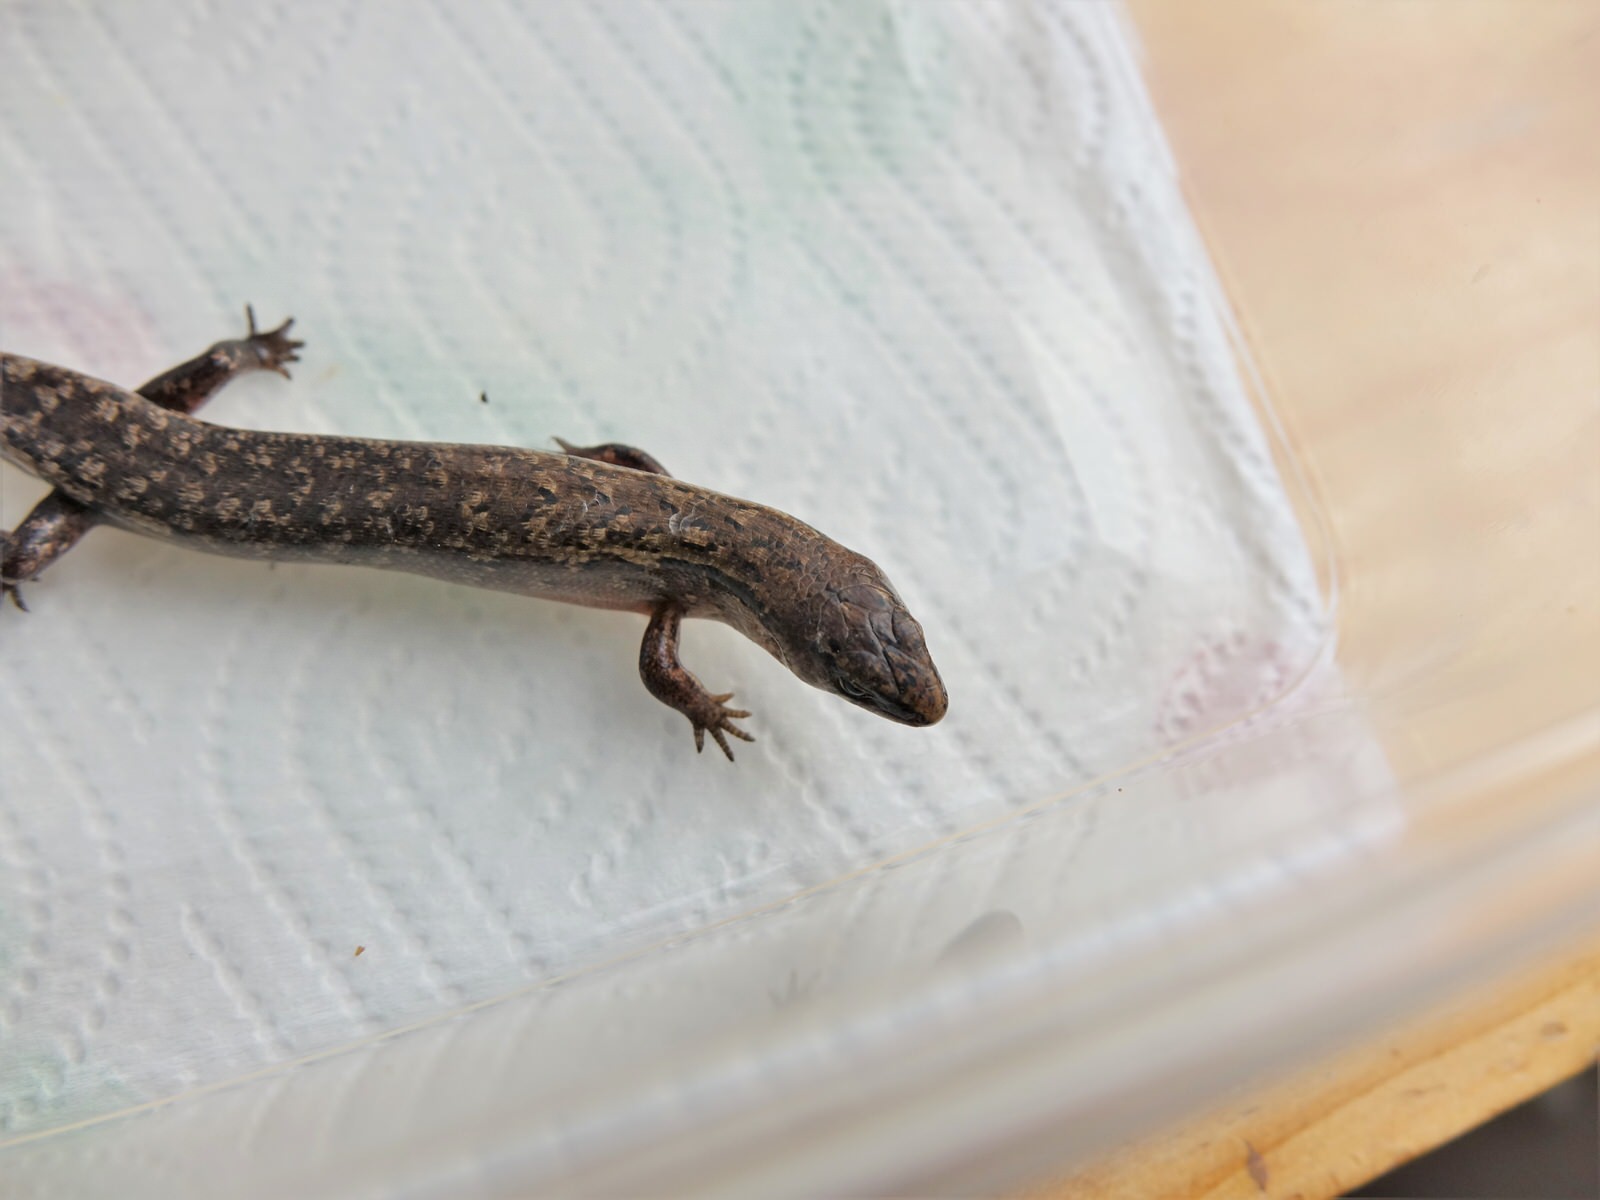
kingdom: Animalia
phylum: Chordata
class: Squamata
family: Scincidae
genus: Oligosoma
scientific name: Oligosoma ornatum
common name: Gray's ornate skink
